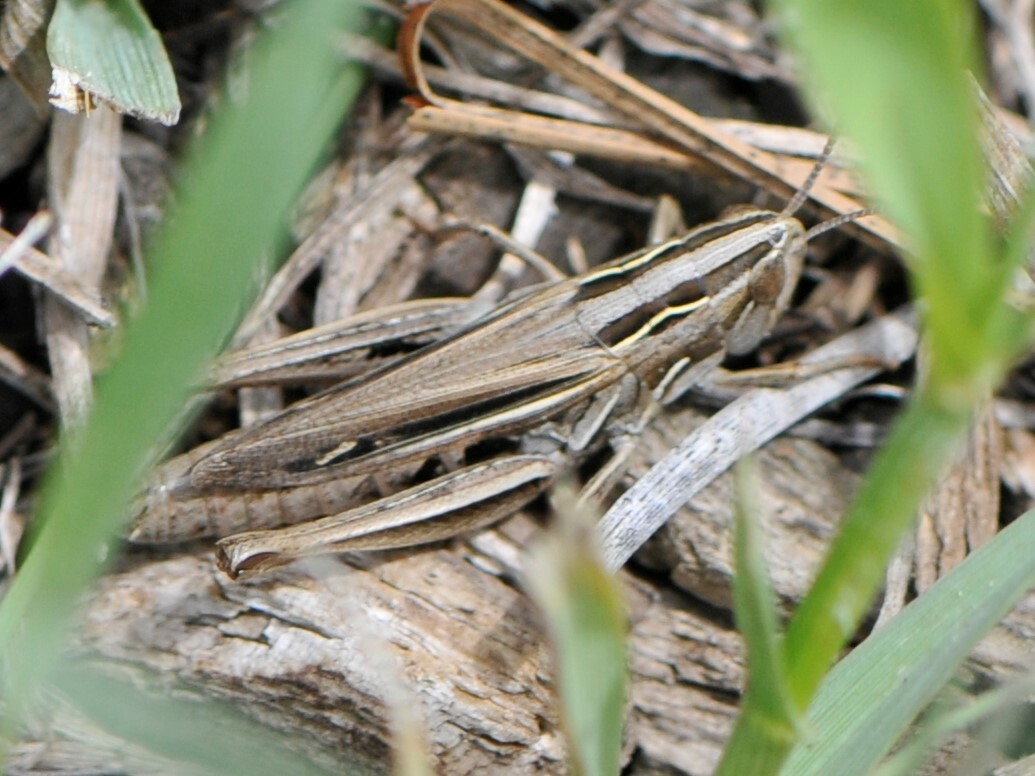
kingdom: Animalia
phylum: Arthropoda
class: Insecta
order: Orthoptera
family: Acrididae
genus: Eritettix
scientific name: Eritettix simplex
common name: Velvet-striped grasshopper
